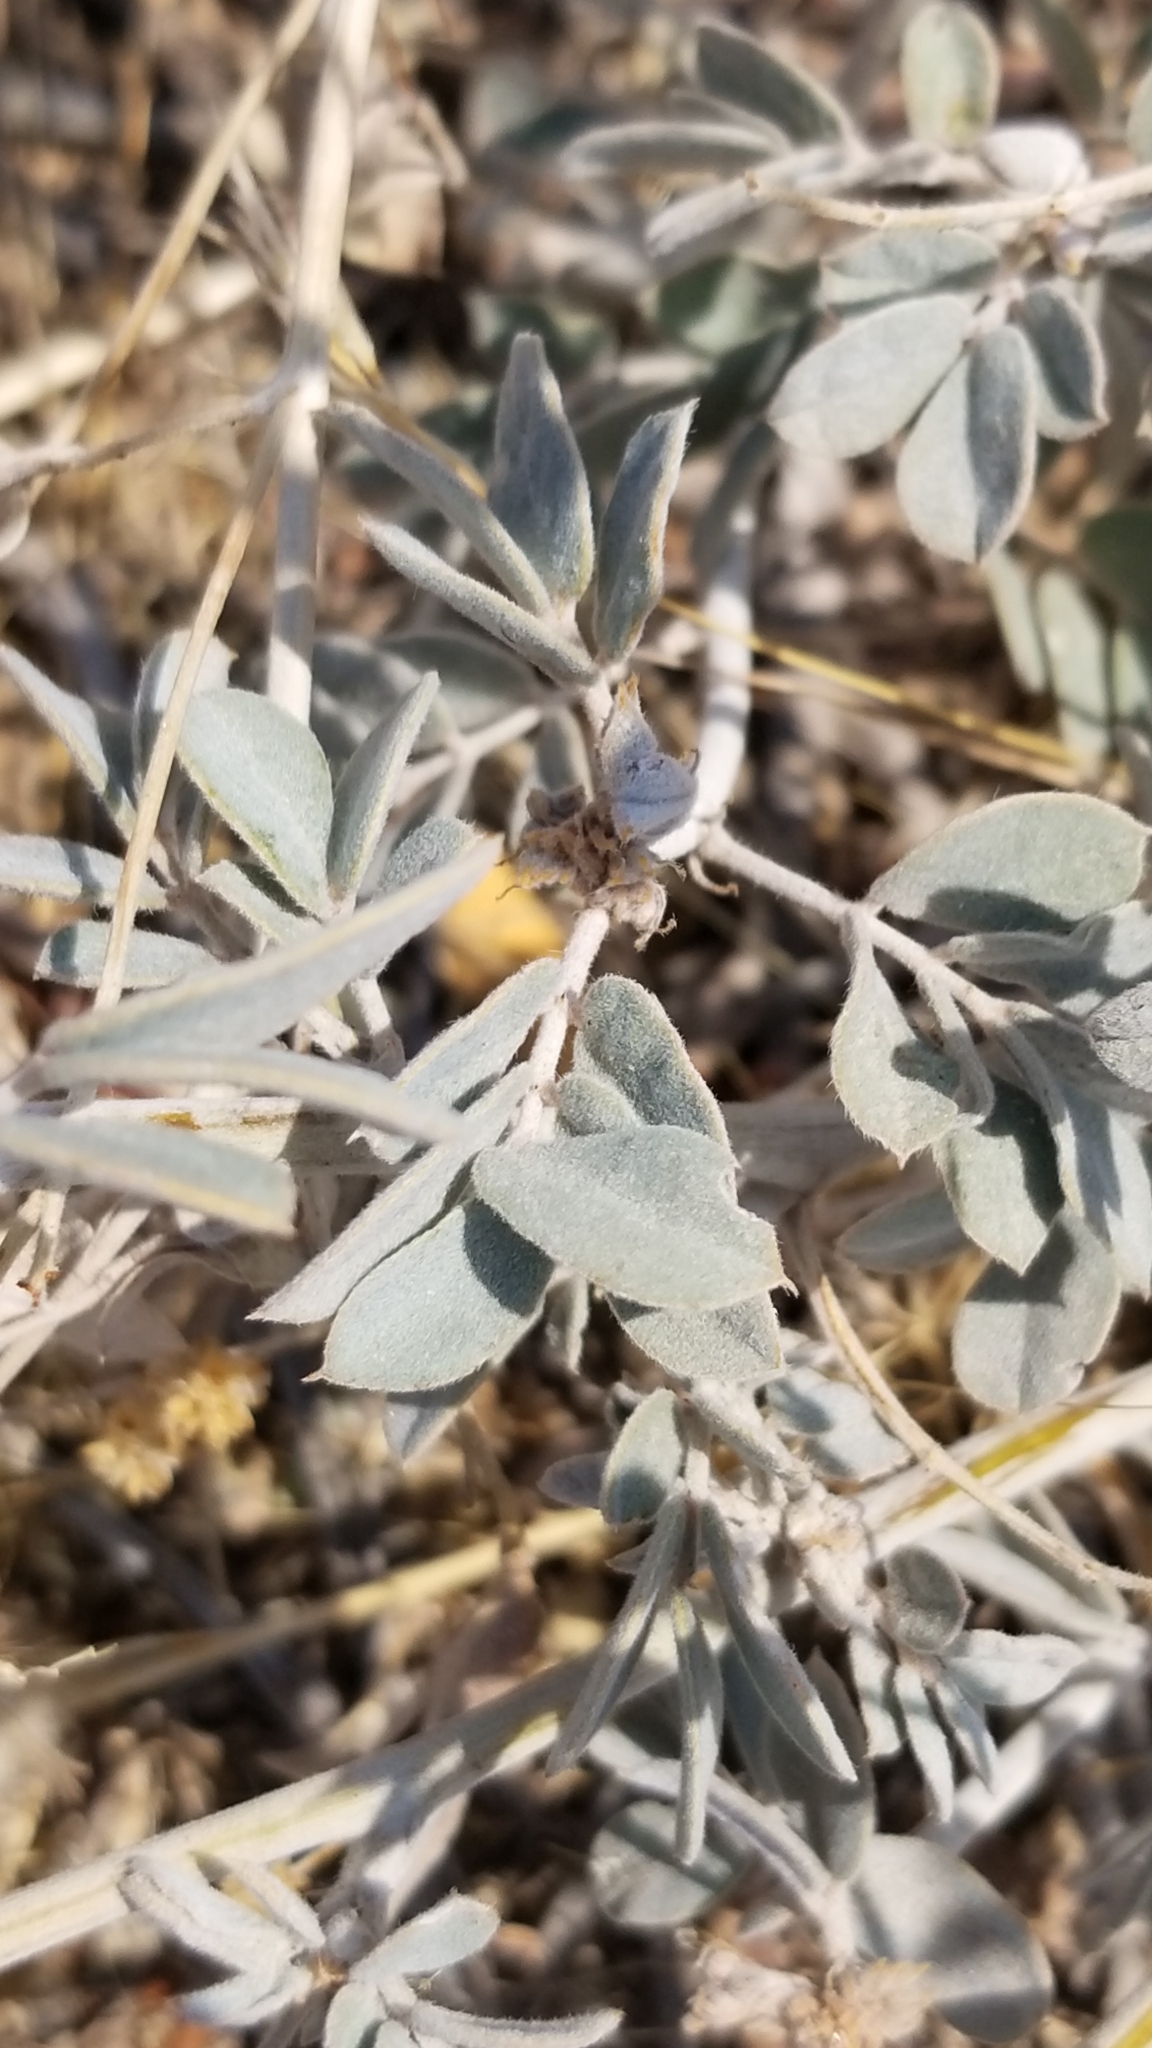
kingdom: Plantae
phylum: Tracheophyta
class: Magnoliopsida
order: Fabales
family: Fabaceae
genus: Senna
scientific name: Senna covesii
